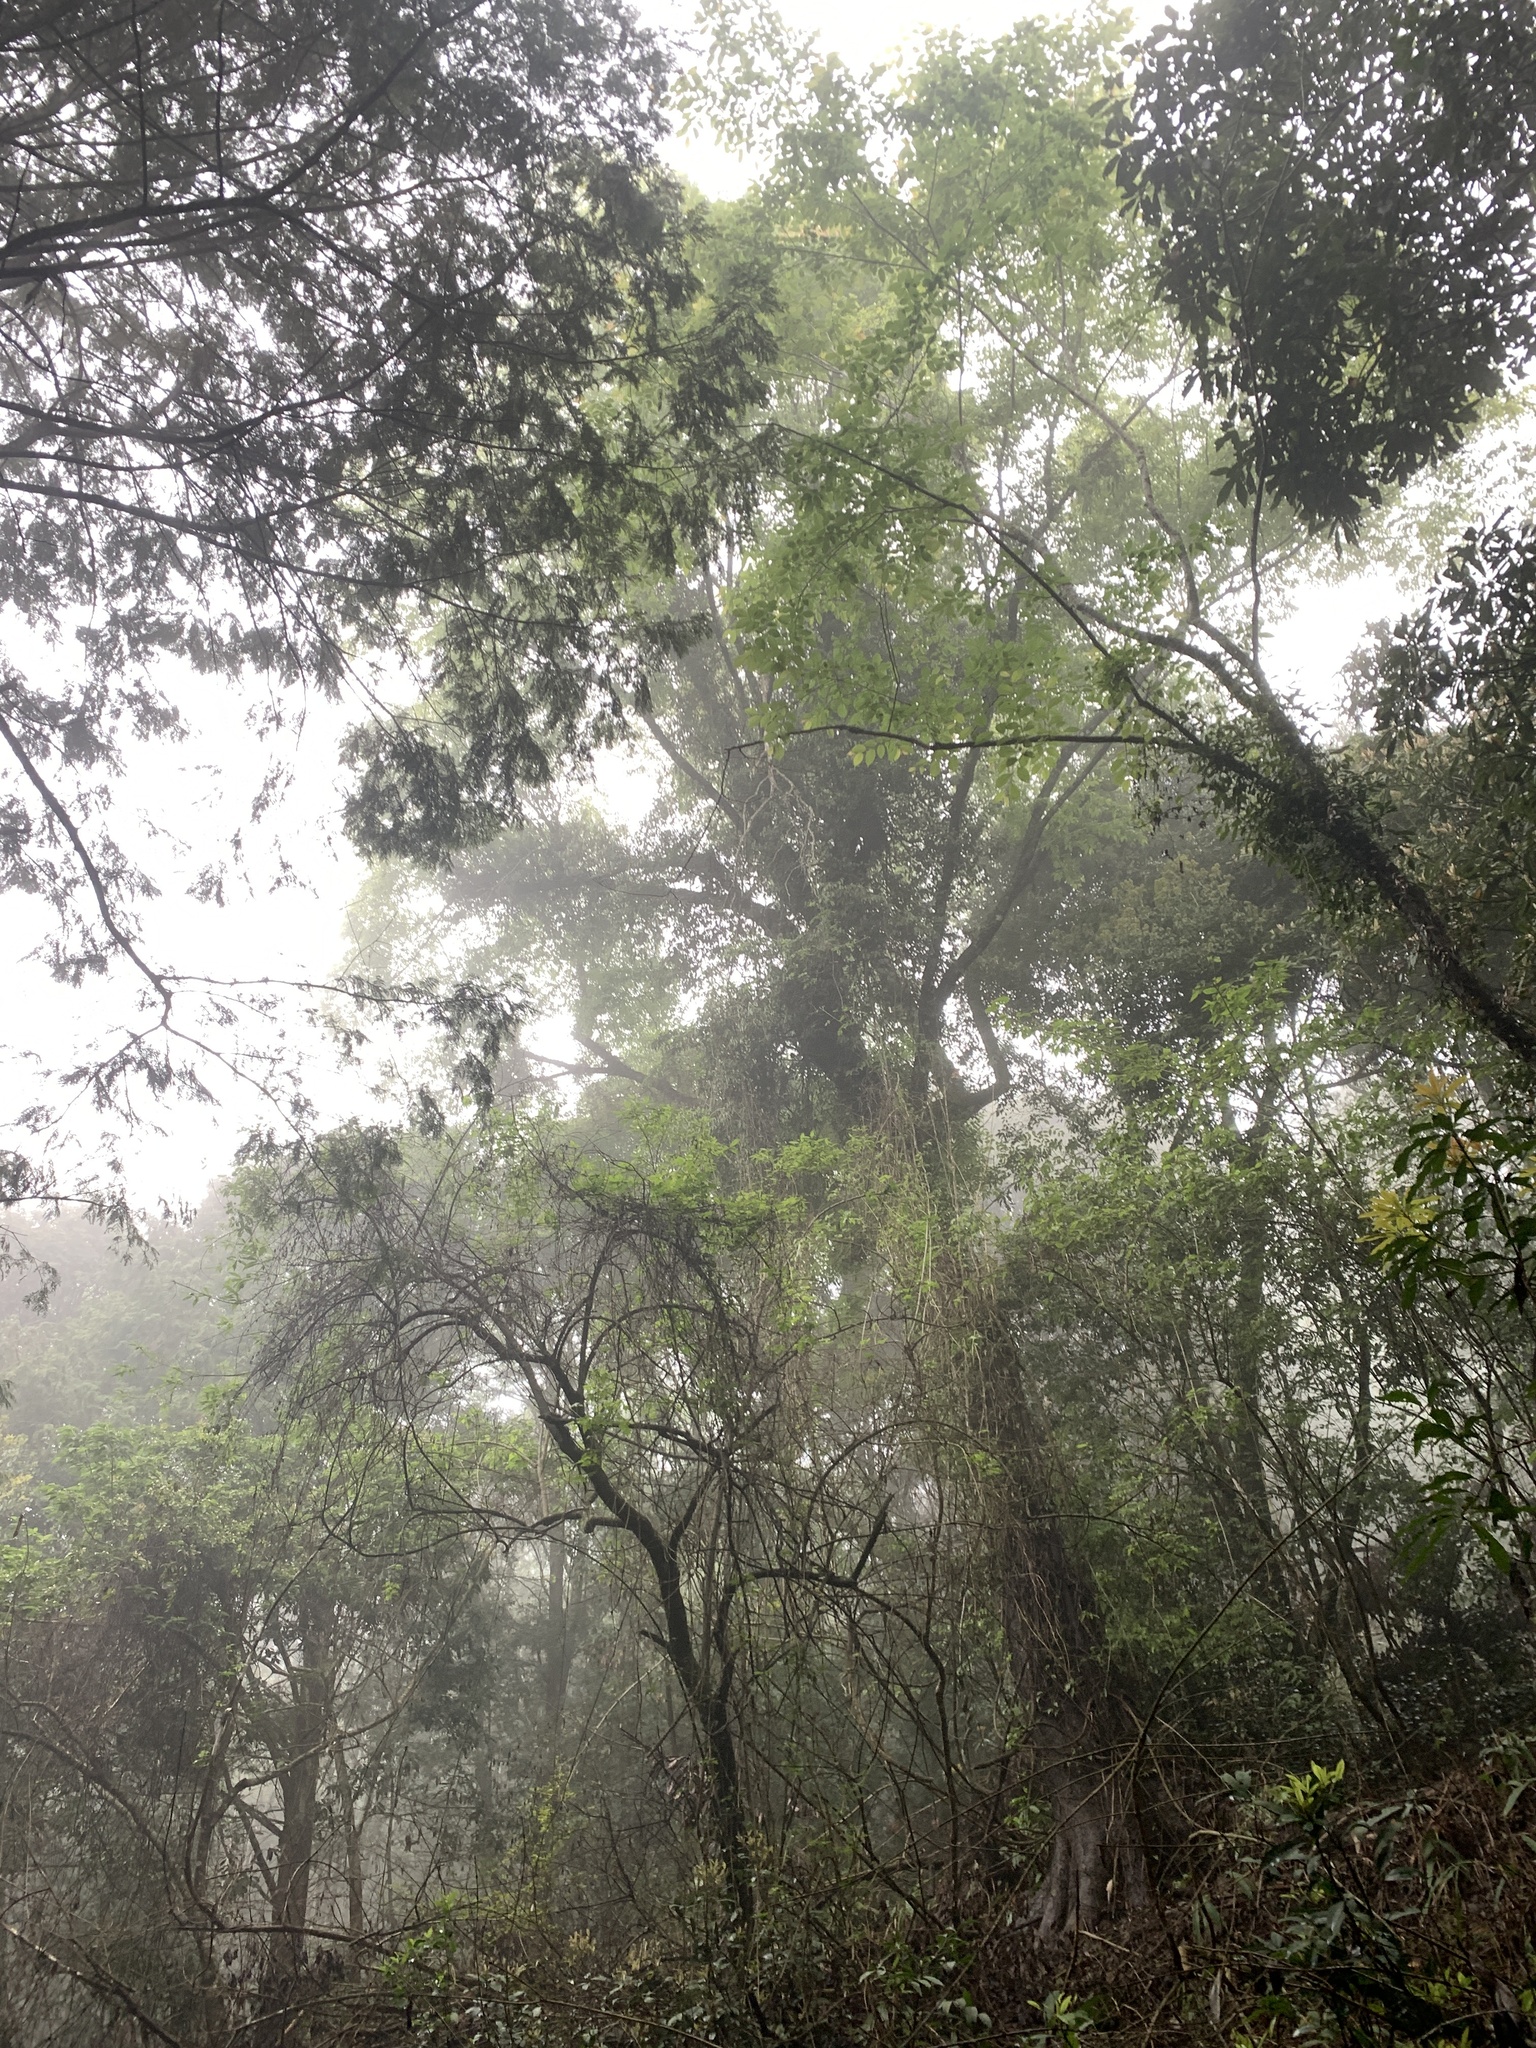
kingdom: Plantae
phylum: Tracheophyta
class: Magnoliopsida
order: Rosales
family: Ulmaceae
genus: Ulmus
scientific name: Ulmus uyematsui
